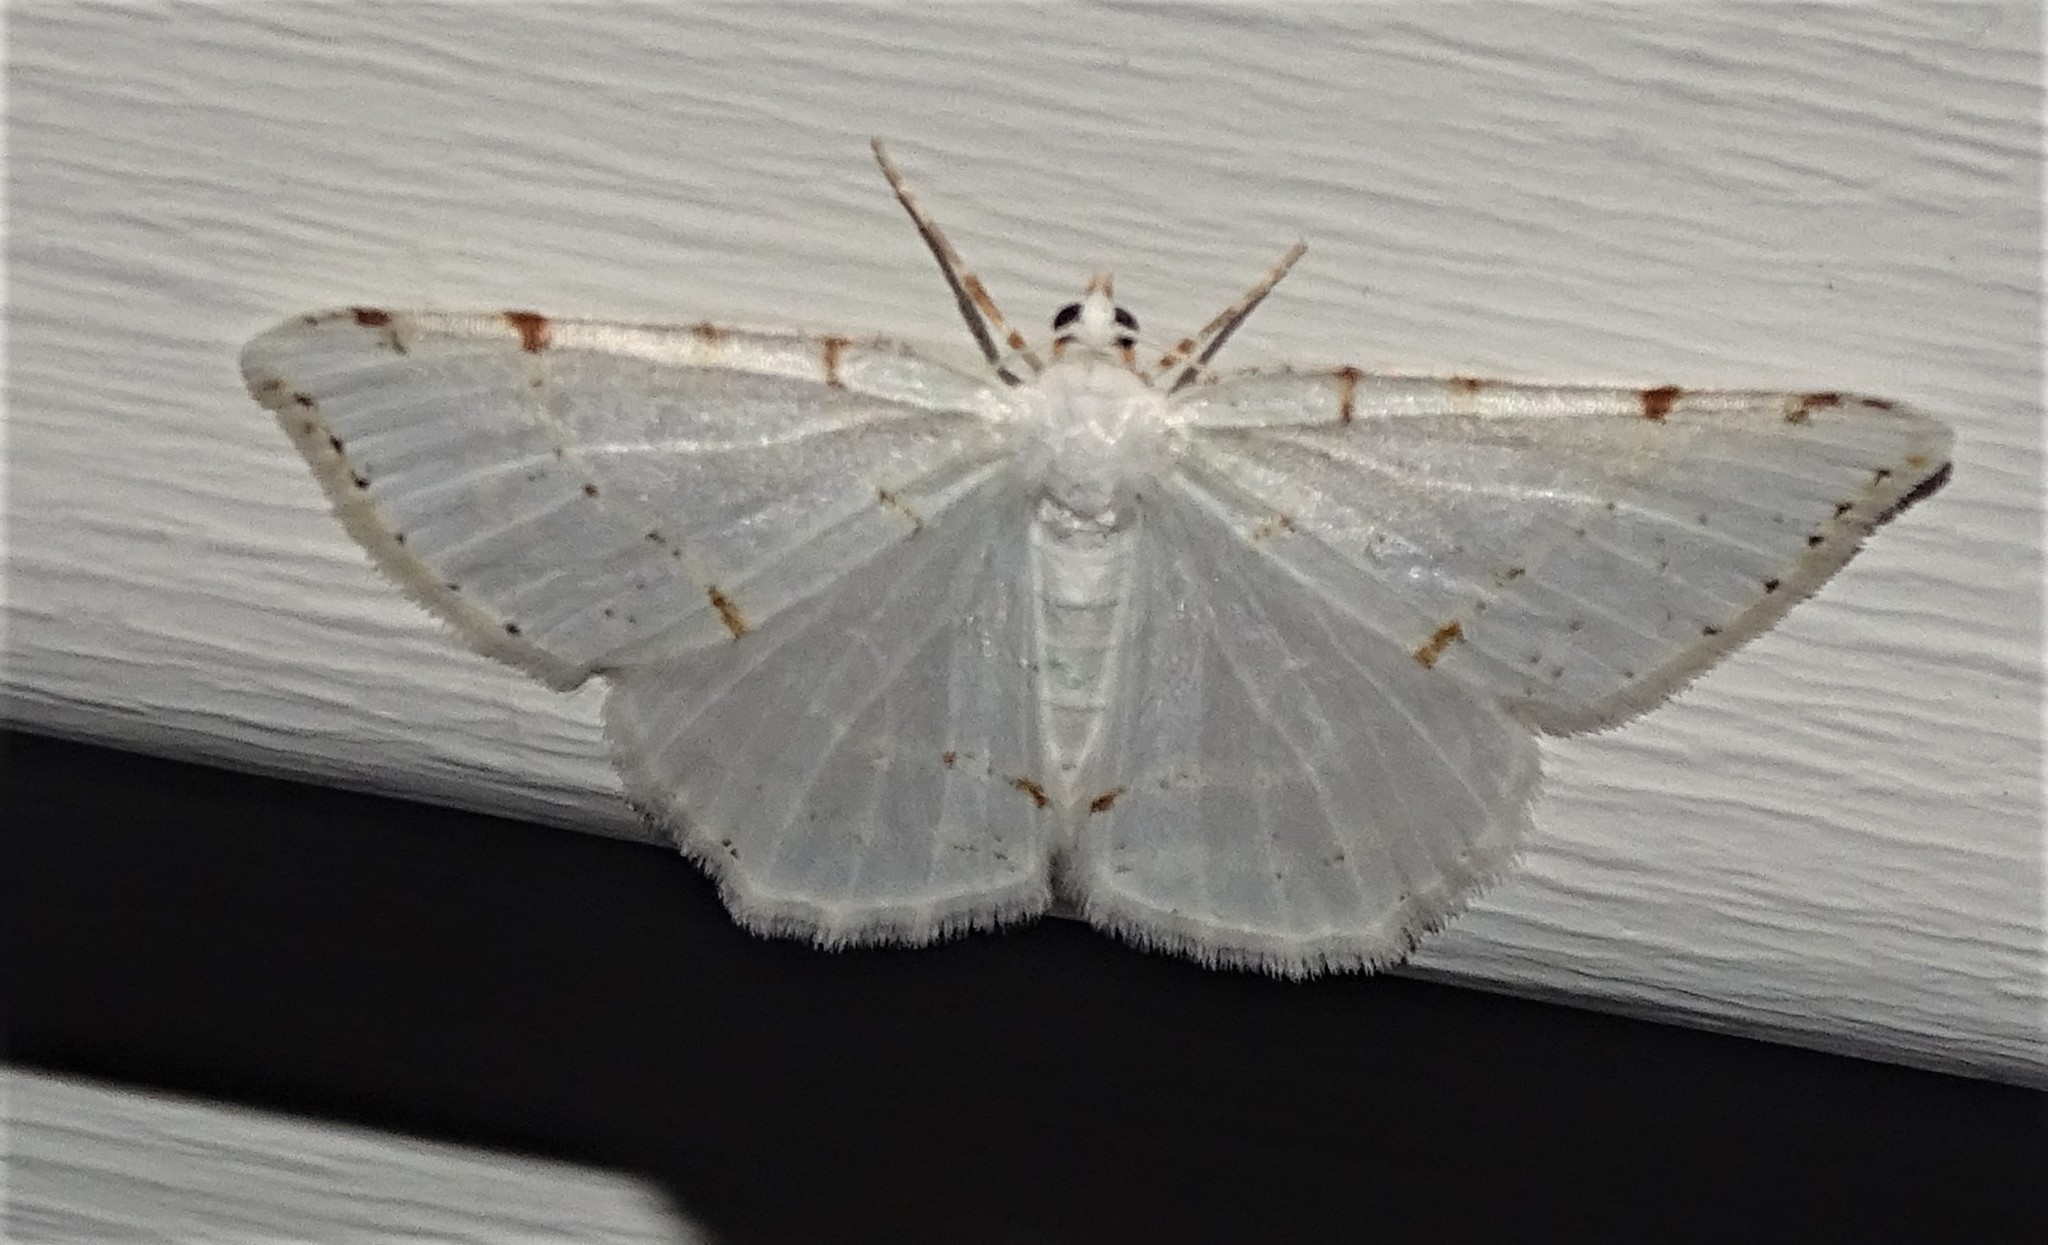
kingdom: Animalia
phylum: Arthropoda
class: Insecta
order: Lepidoptera
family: Geometridae
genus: Macaria
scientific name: Macaria pustularia
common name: Lesser maple spanworm moth
